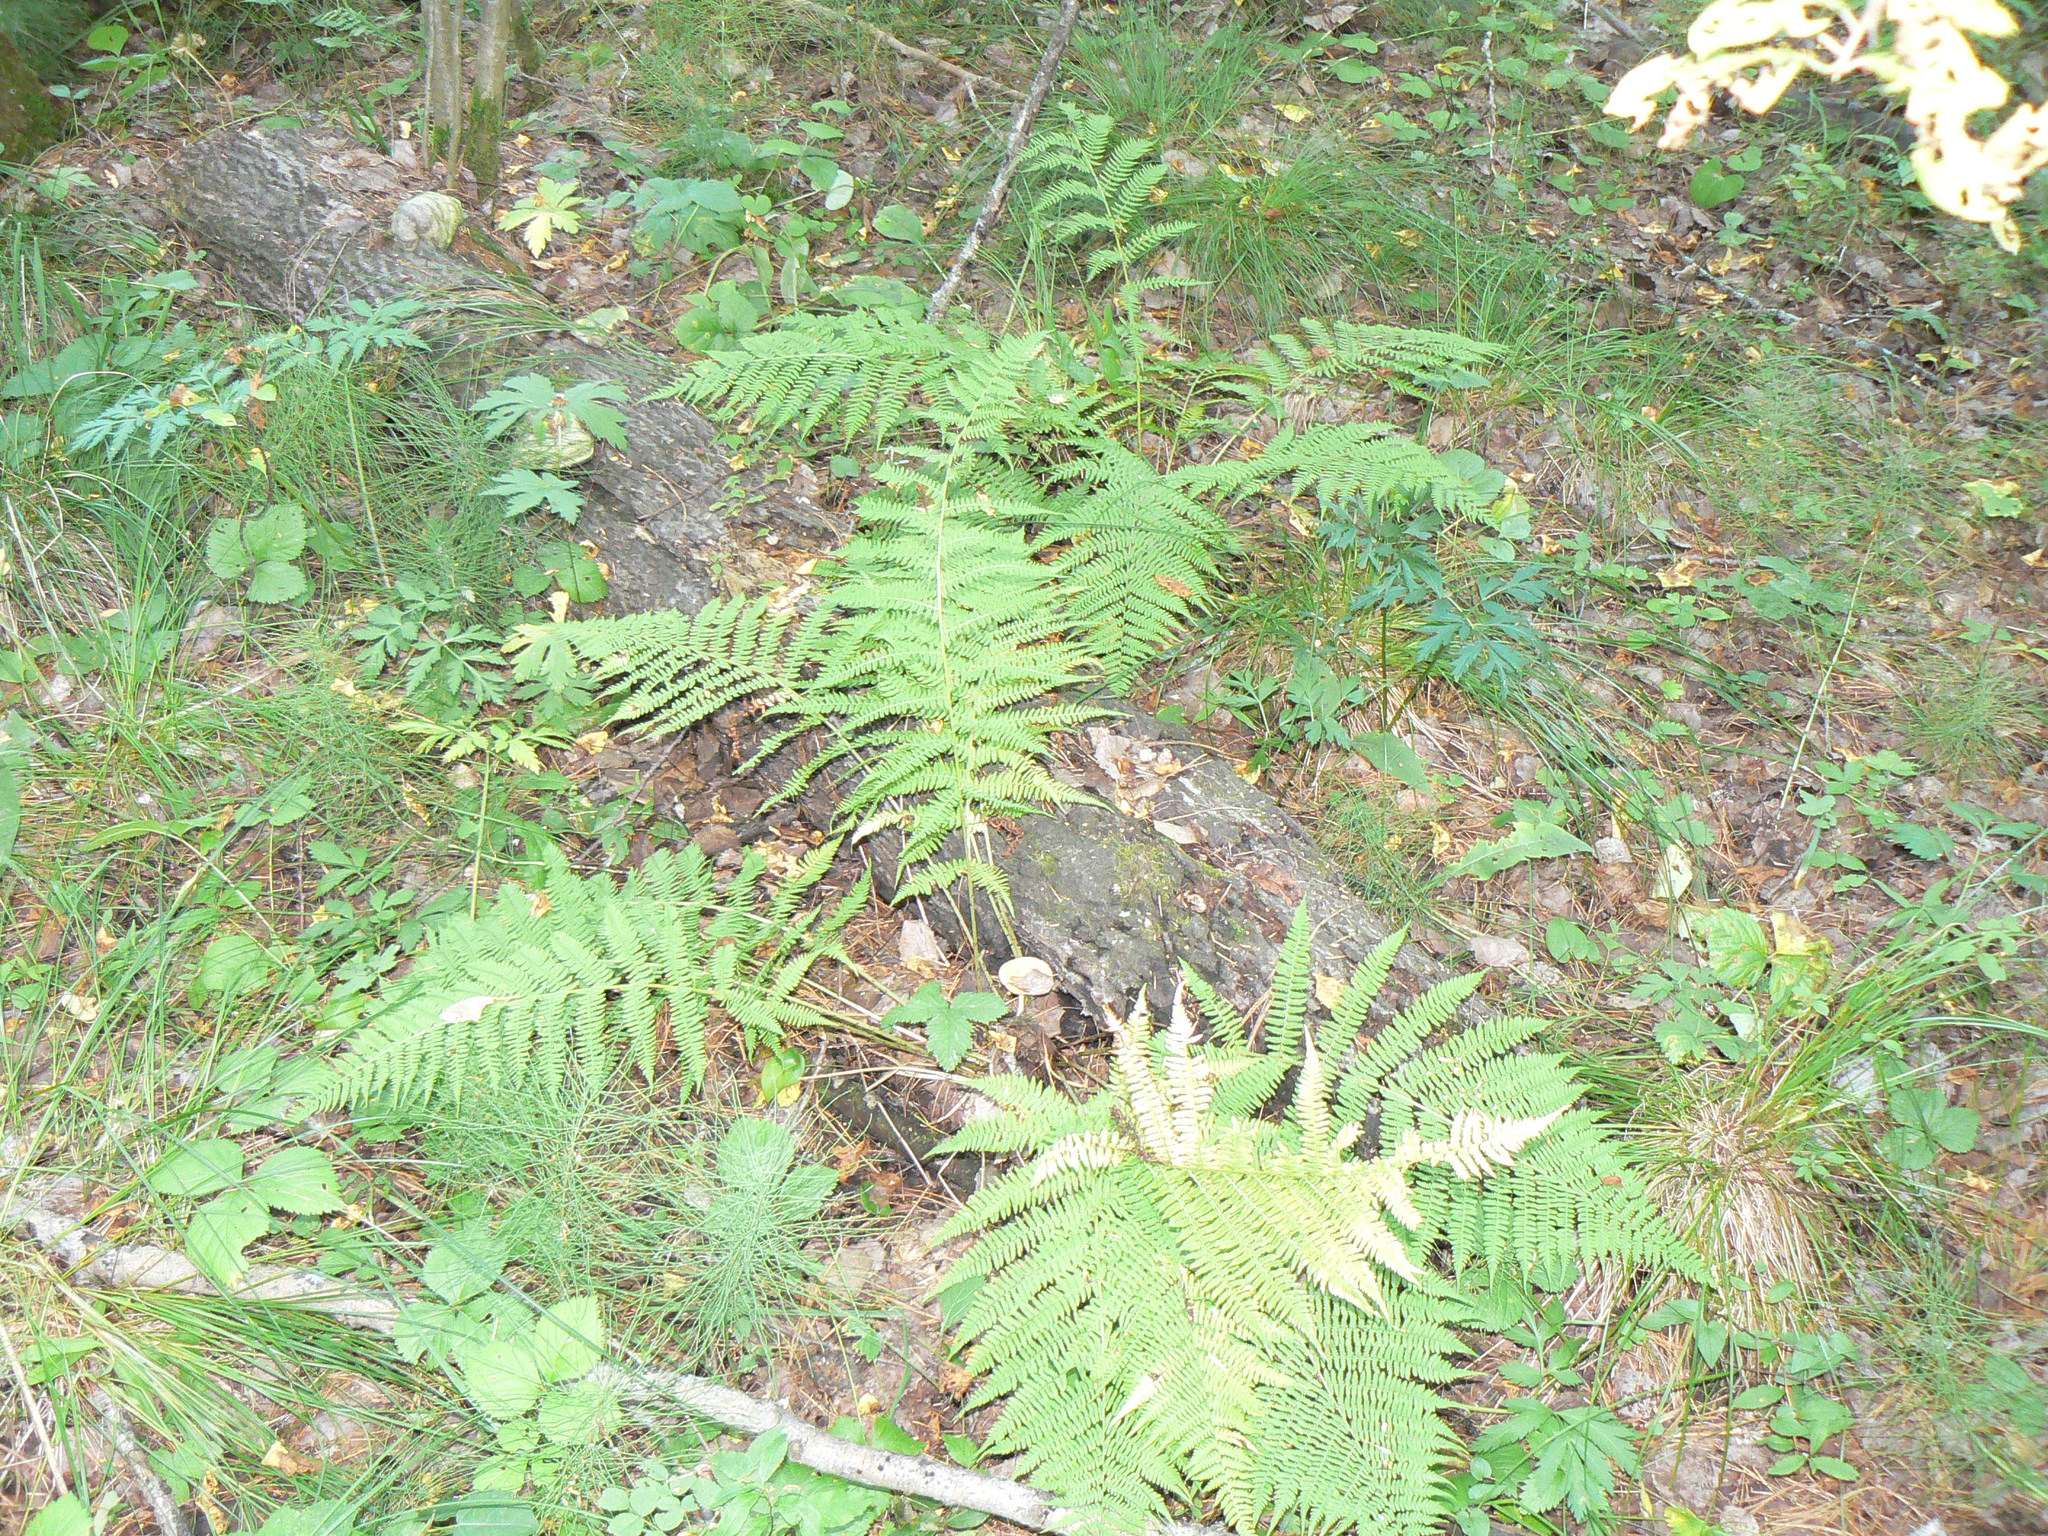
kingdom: Plantae
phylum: Tracheophyta
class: Polypodiopsida
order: Polypodiales
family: Athyriaceae
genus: Athyrium
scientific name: Athyrium filix-femina
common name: Lady fern
